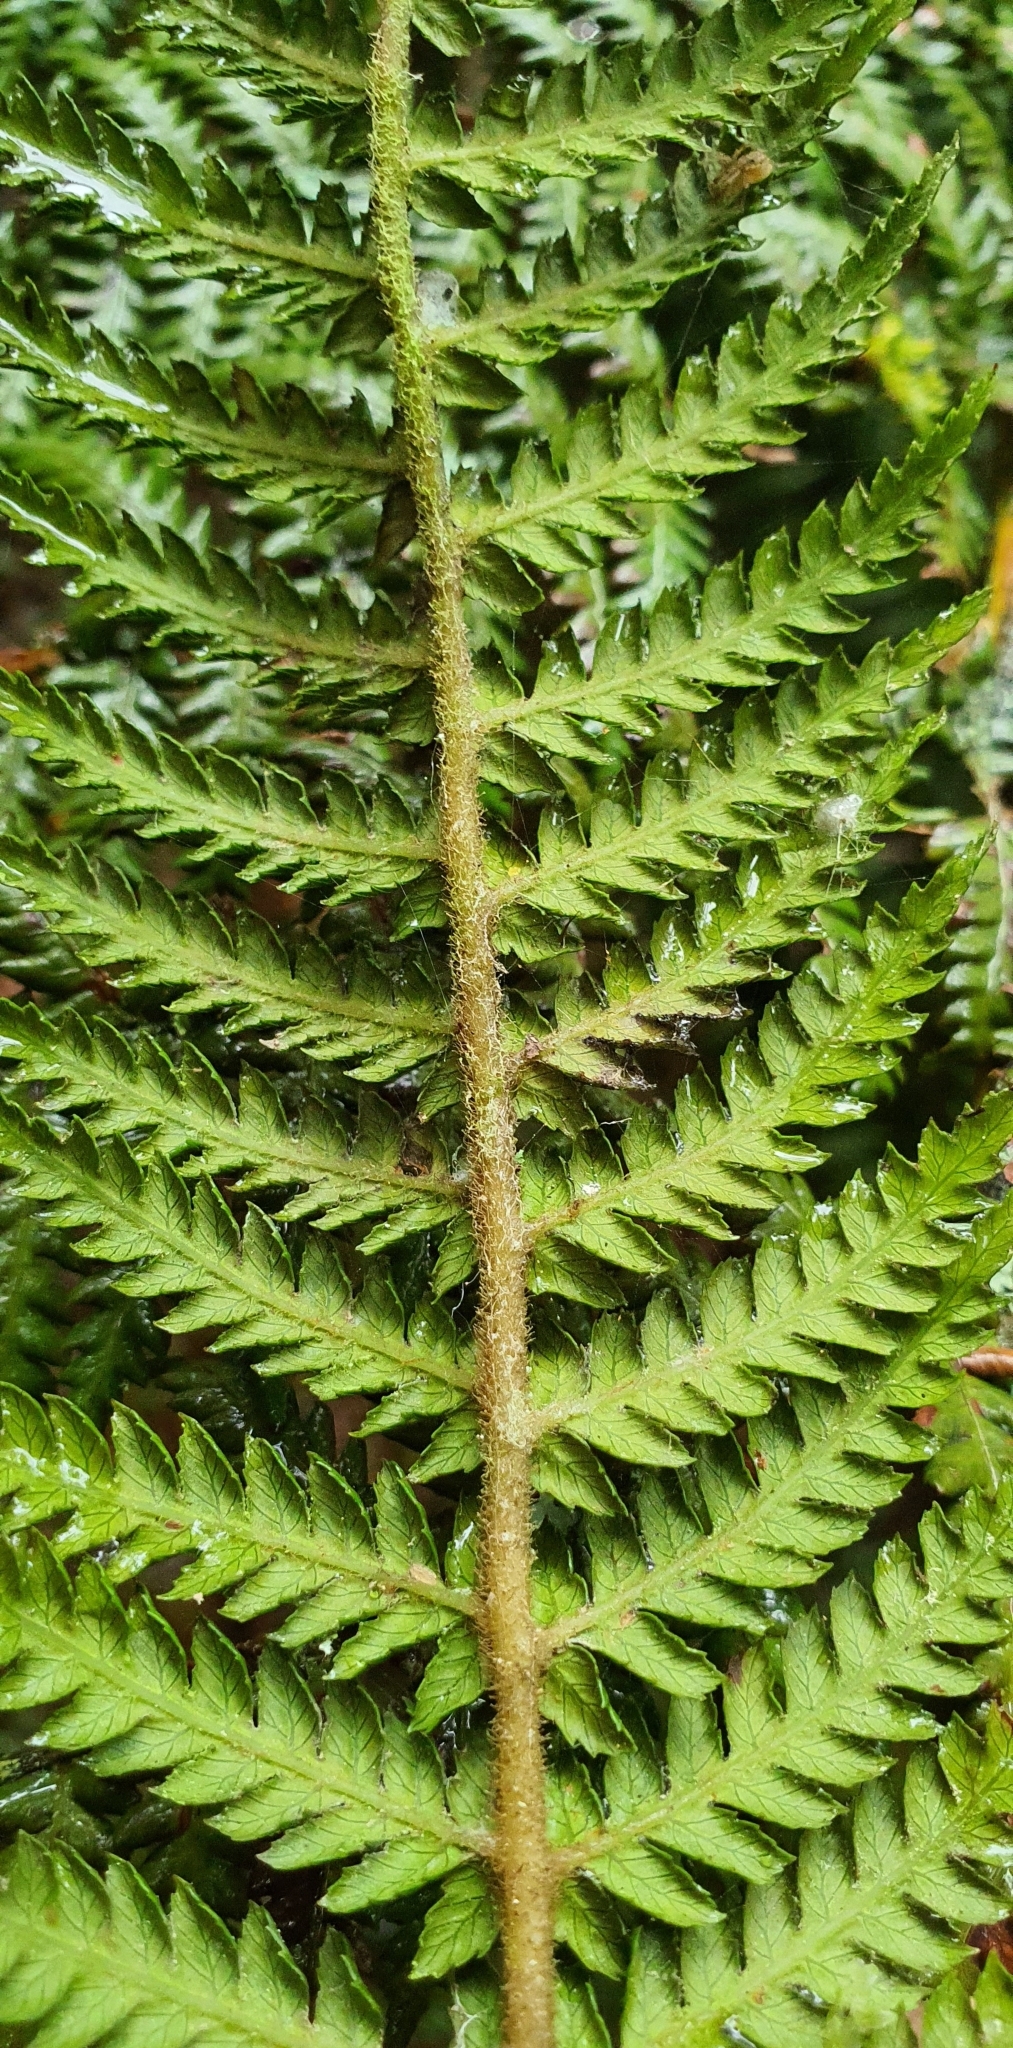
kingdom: Plantae
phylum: Tracheophyta
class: Polypodiopsida
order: Cyatheales
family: Dicksoniaceae
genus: Dicksonia
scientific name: Dicksonia fibrosa
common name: Golden tree fern
